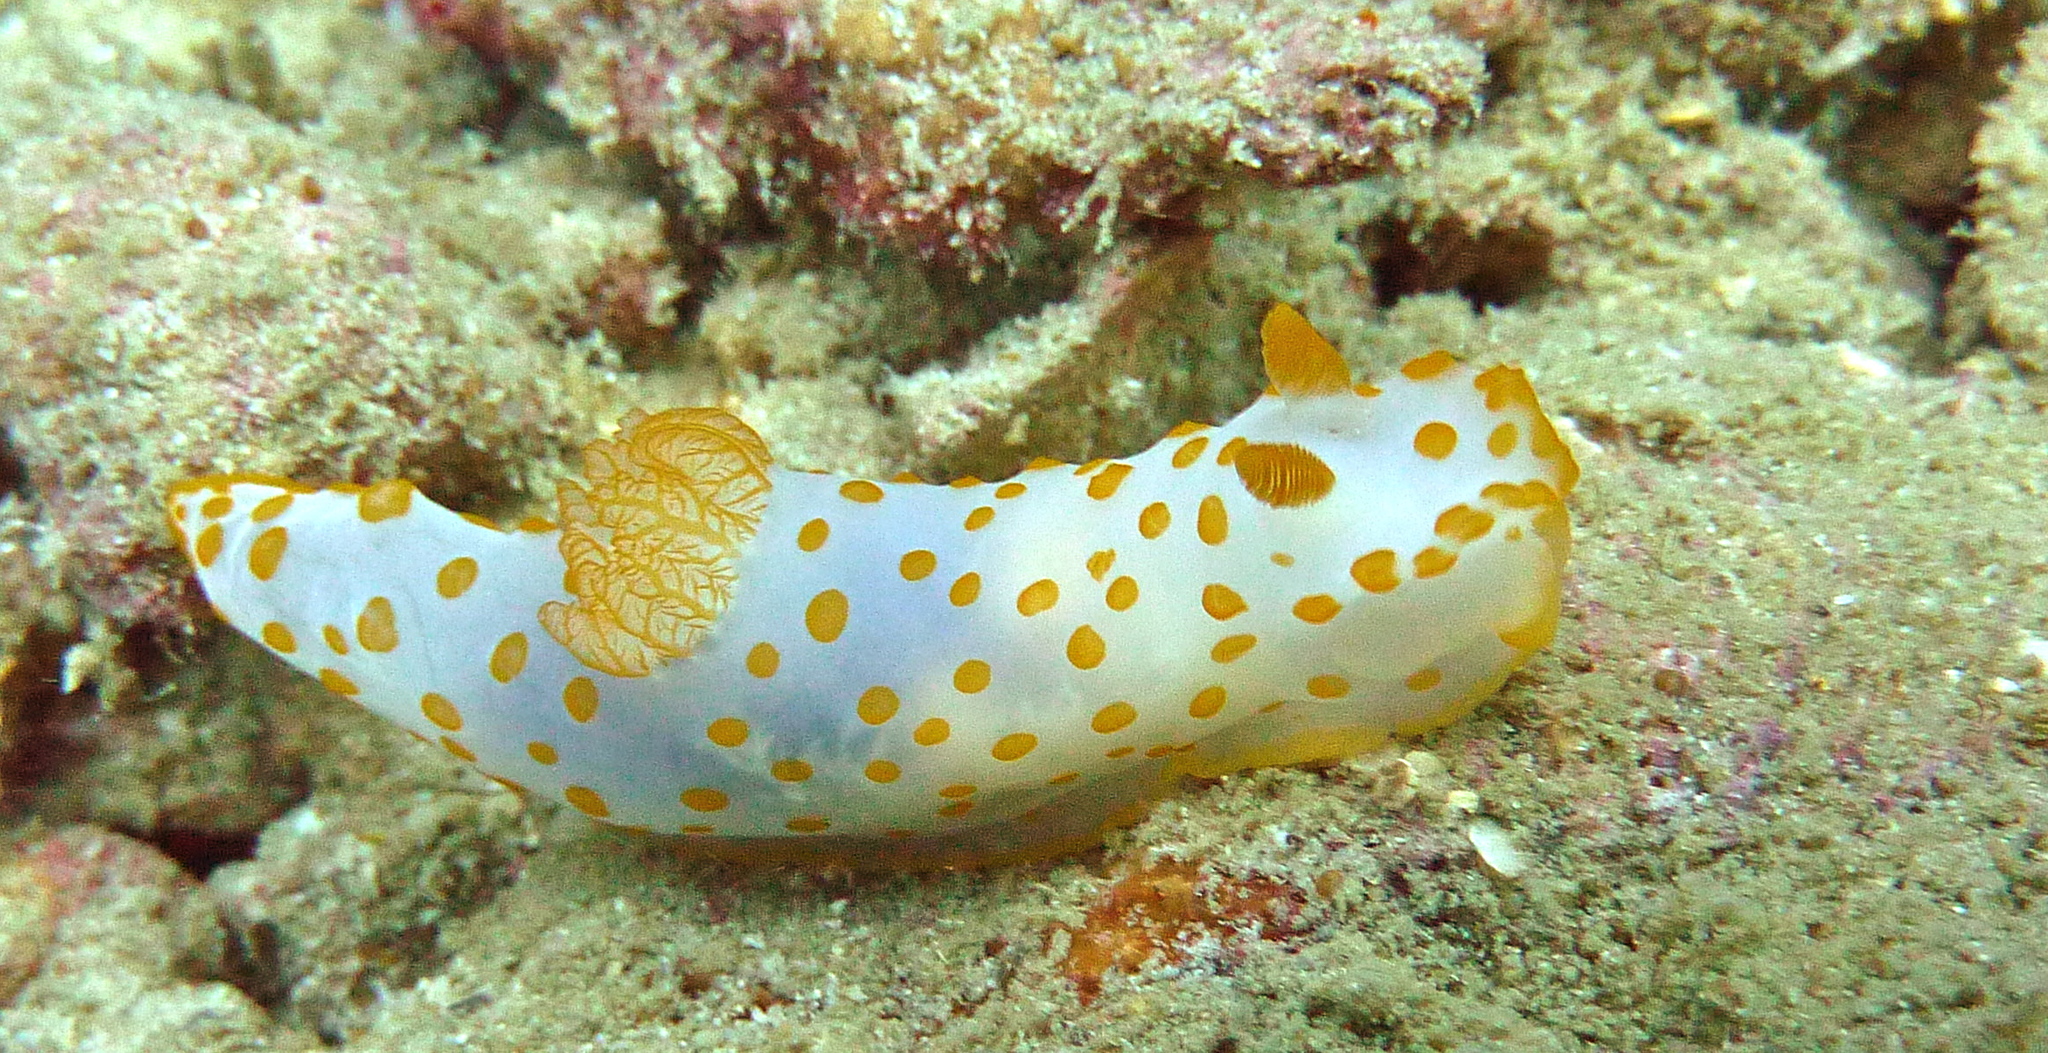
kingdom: Animalia
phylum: Mollusca
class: Gastropoda
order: Nudibranchia
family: Polyceridae
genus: Gymnodoris
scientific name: Gymnodoris impudica
